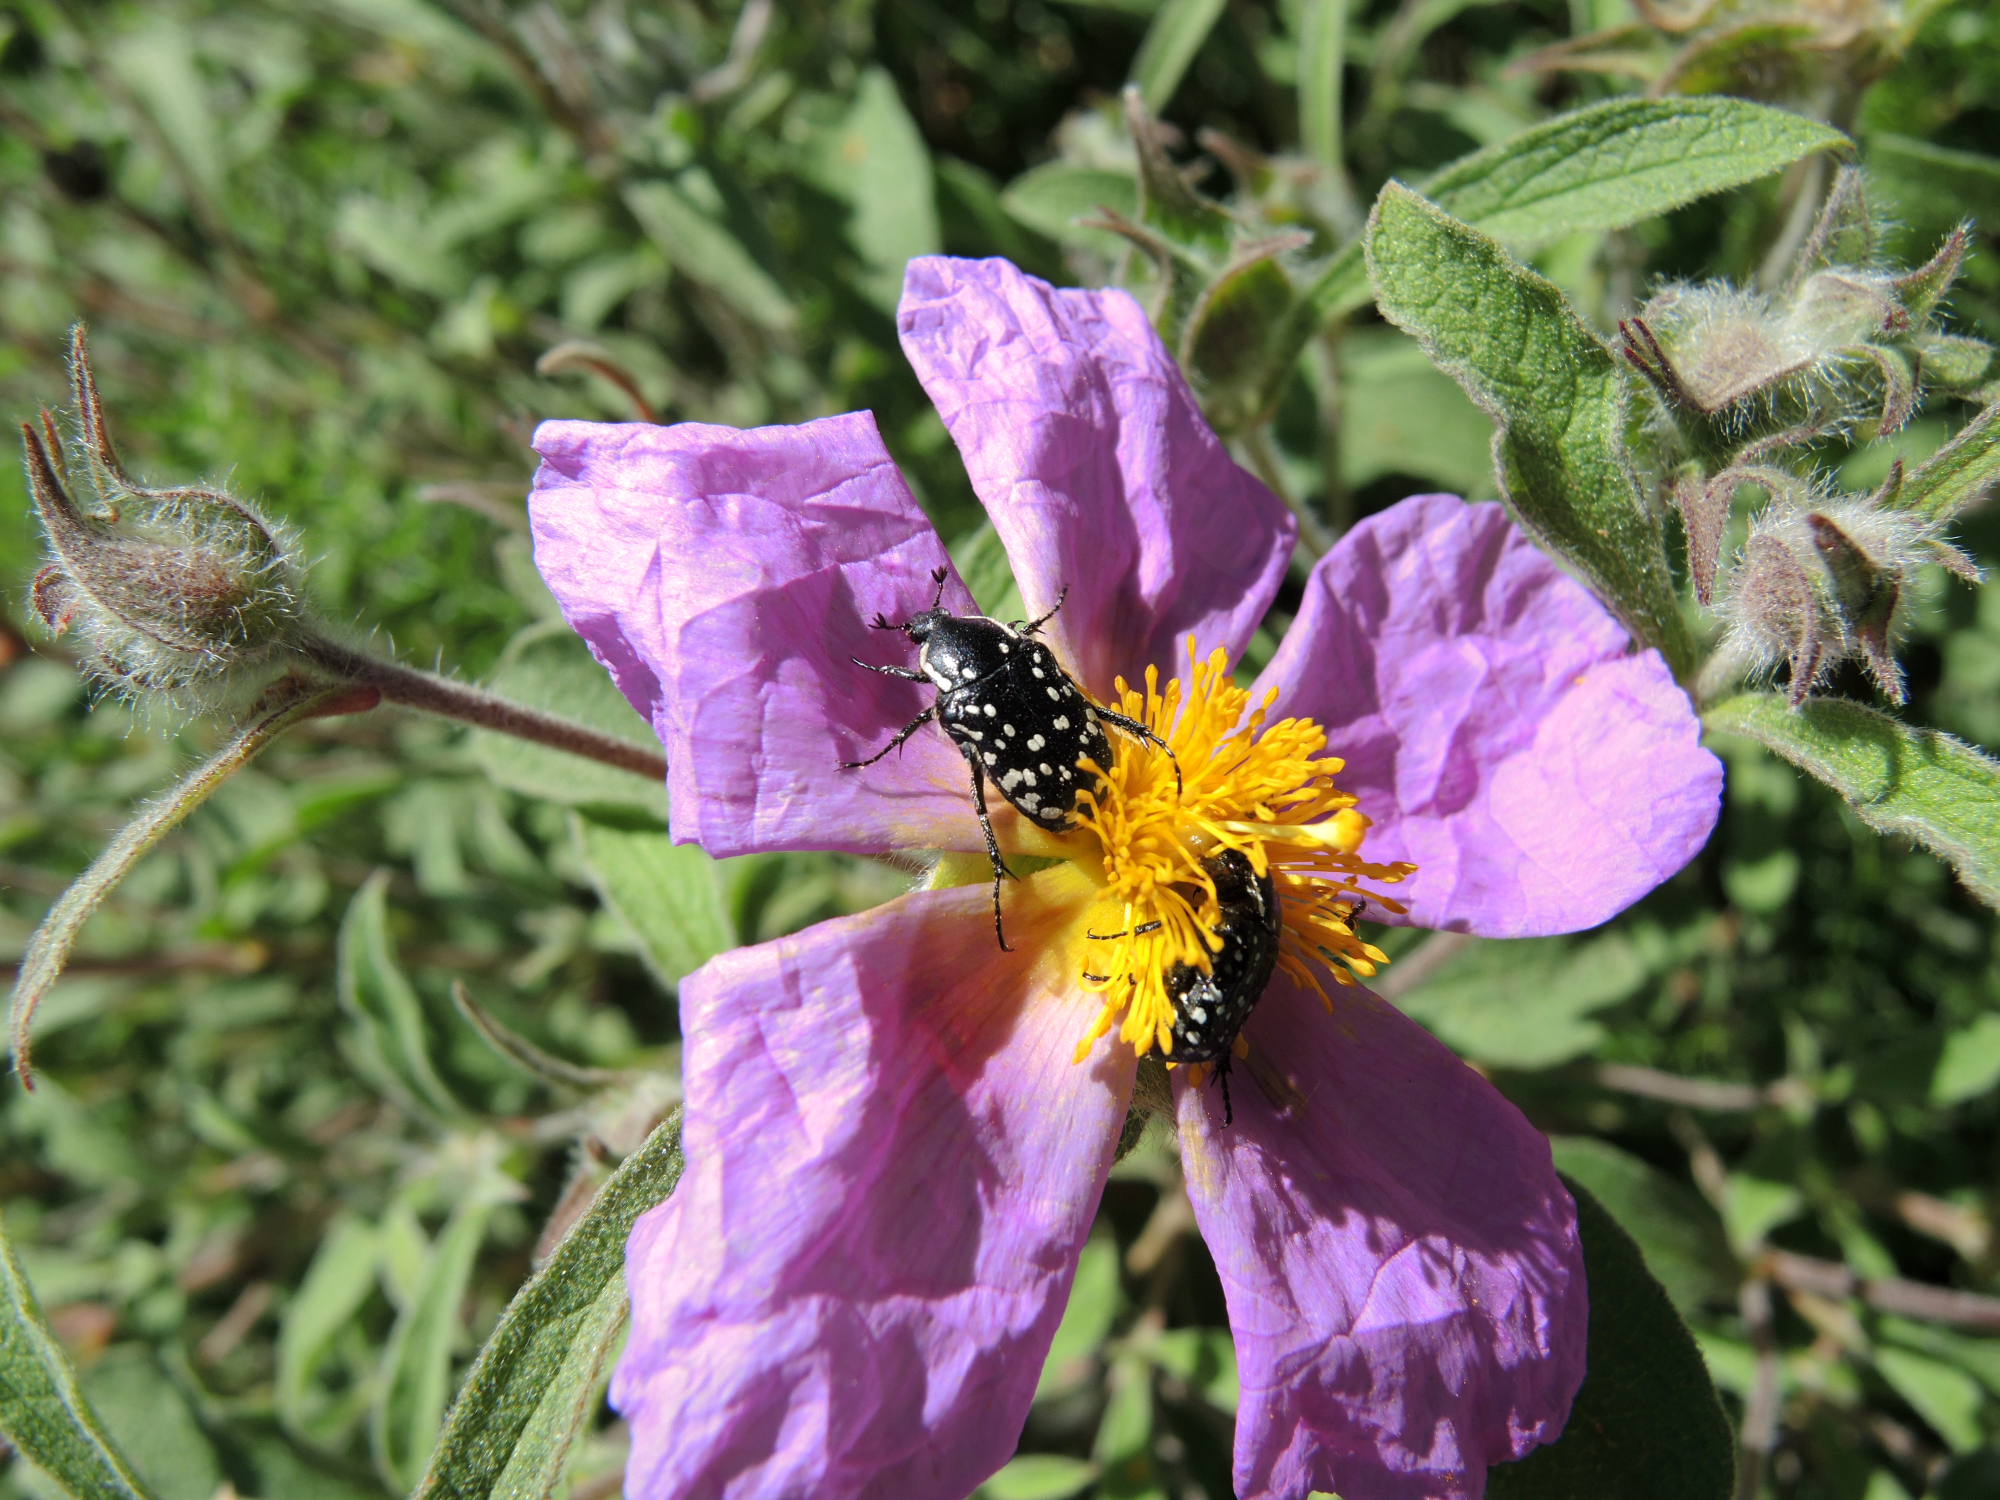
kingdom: Animalia
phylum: Arthropoda
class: Insecta
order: Coleoptera
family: Scarabaeidae
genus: Oxythyrea
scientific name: Oxythyrea cinctella
